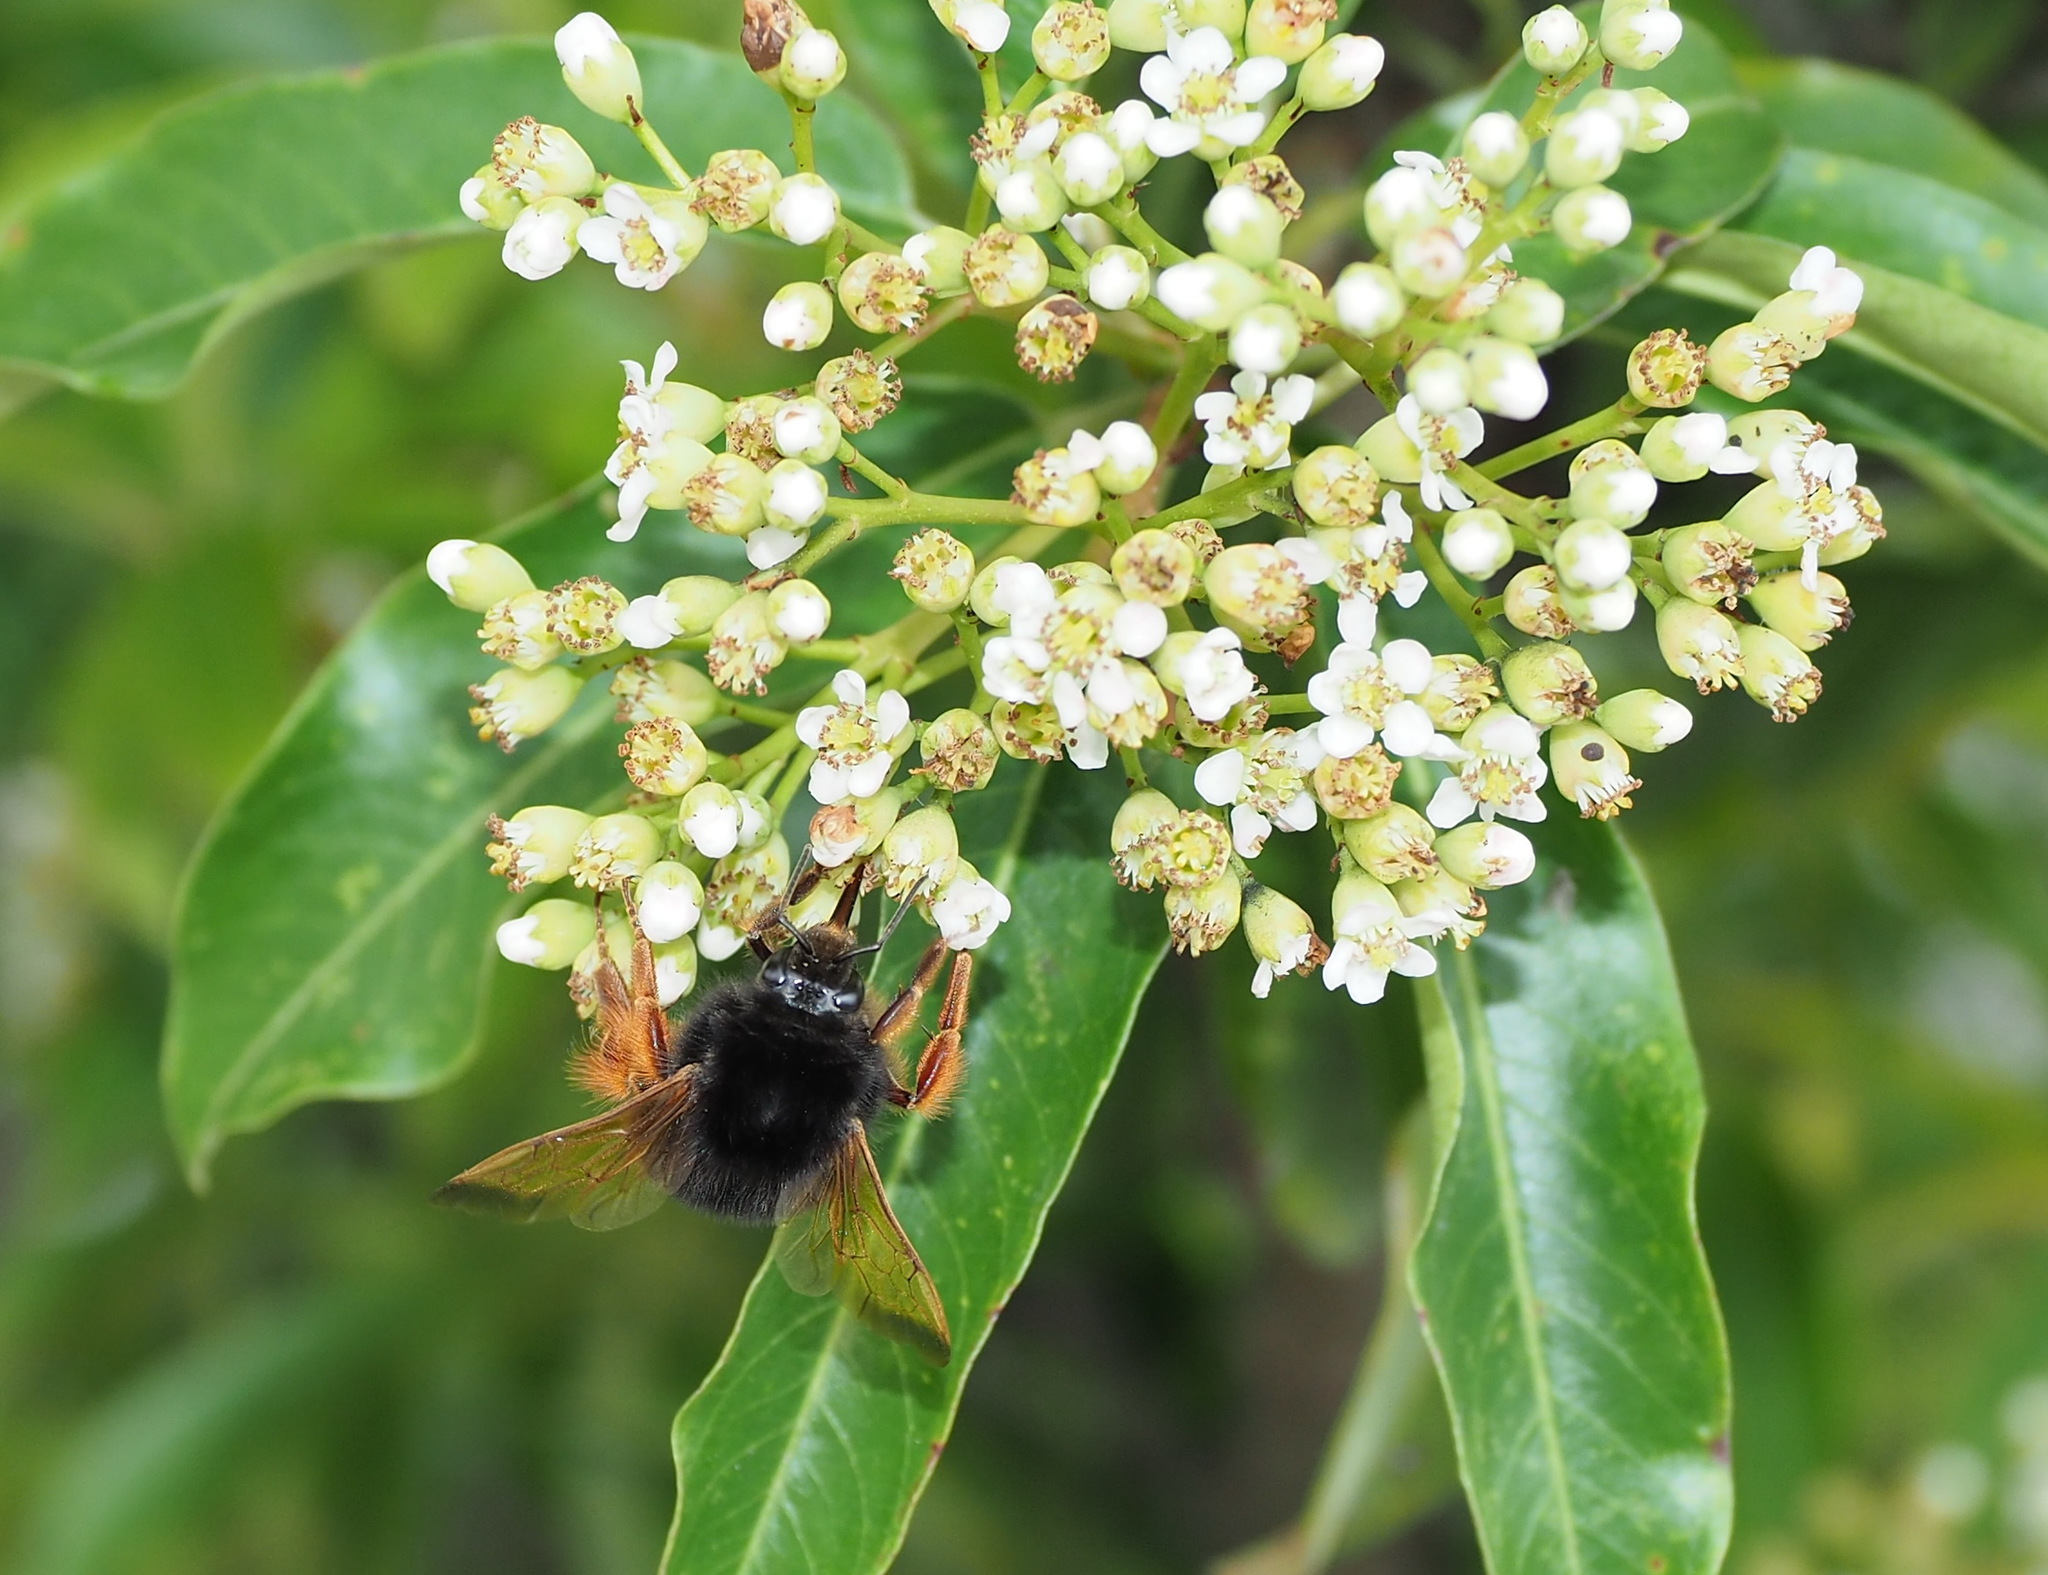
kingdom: Animalia
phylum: Arthropoda
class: Insecta
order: Hymenoptera
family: Apidae
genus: Bombus
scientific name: Bombus flavescens
